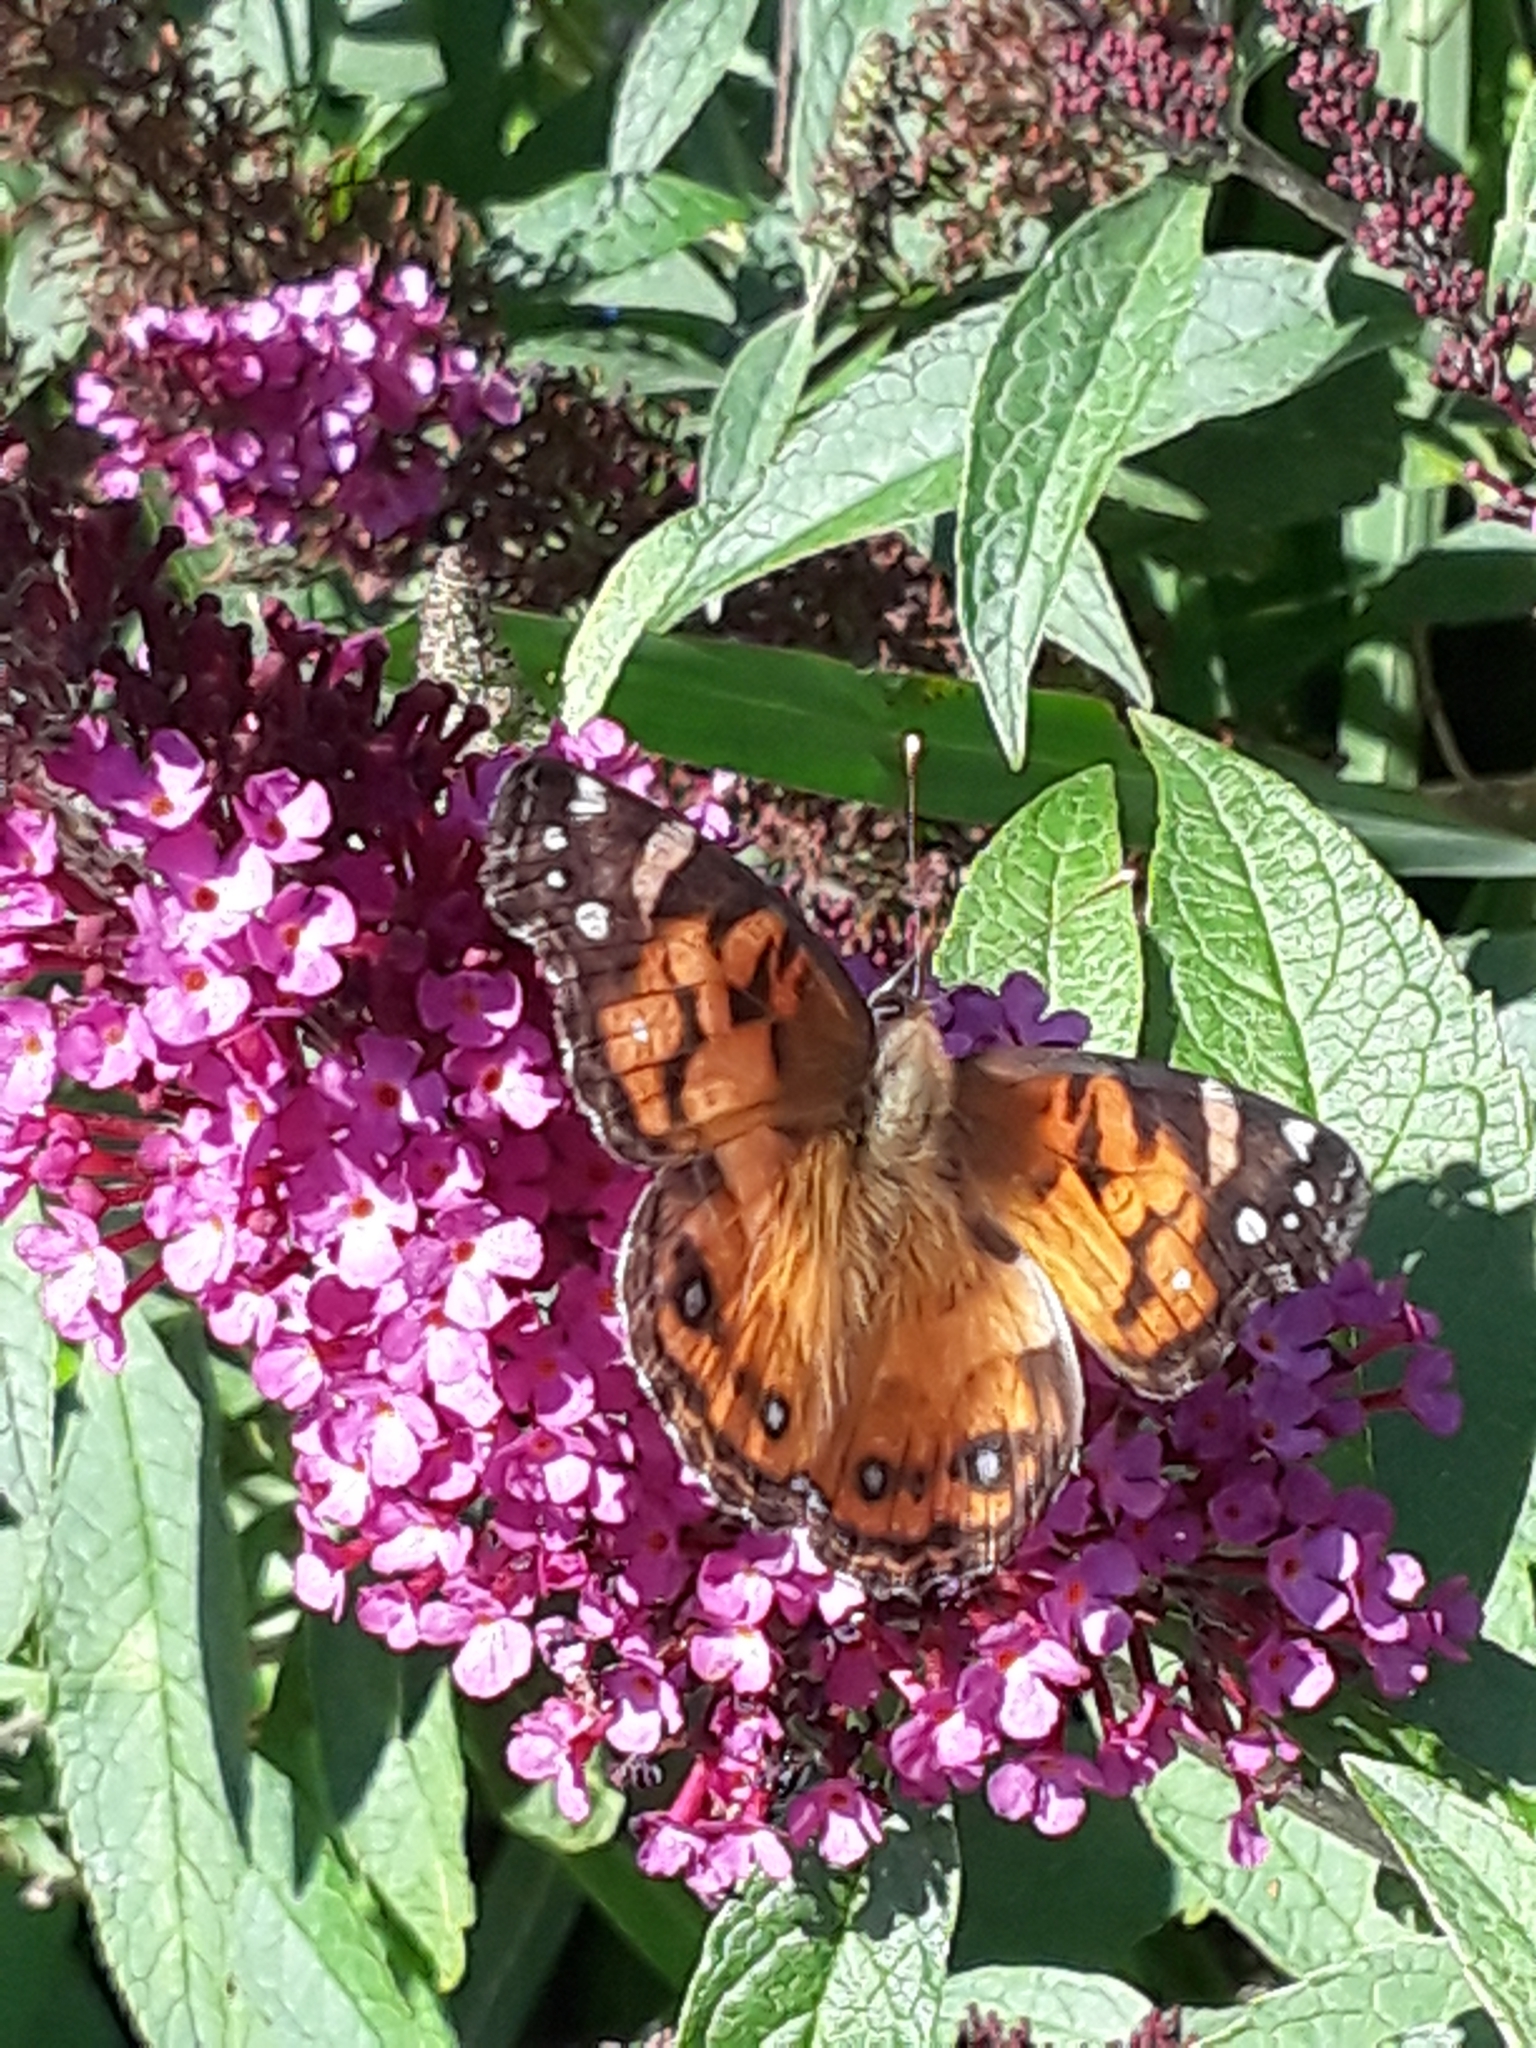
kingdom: Animalia
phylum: Arthropoda
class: Insecta
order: Lepidoptera
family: Nymphalidae
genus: Vanessa
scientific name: Vanessa virginiensis
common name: American lady
